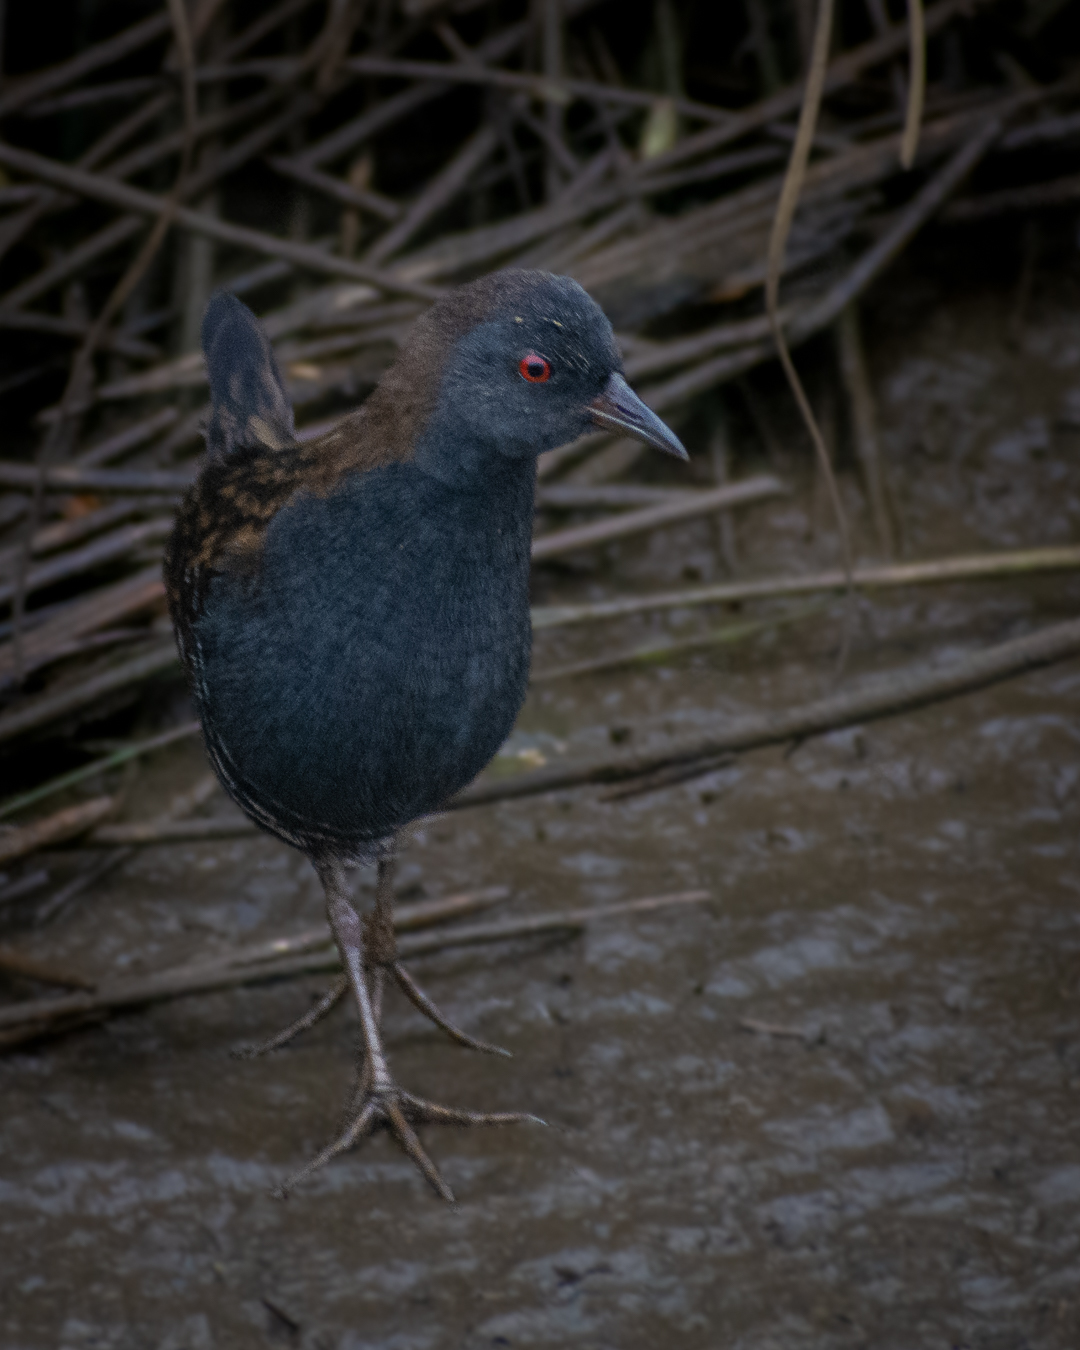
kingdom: Animalia
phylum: Chordata
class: Aves
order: Gruiformes
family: Rallidae
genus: Porzana
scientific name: Porzana spiloptera
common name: Dot-winged crake
